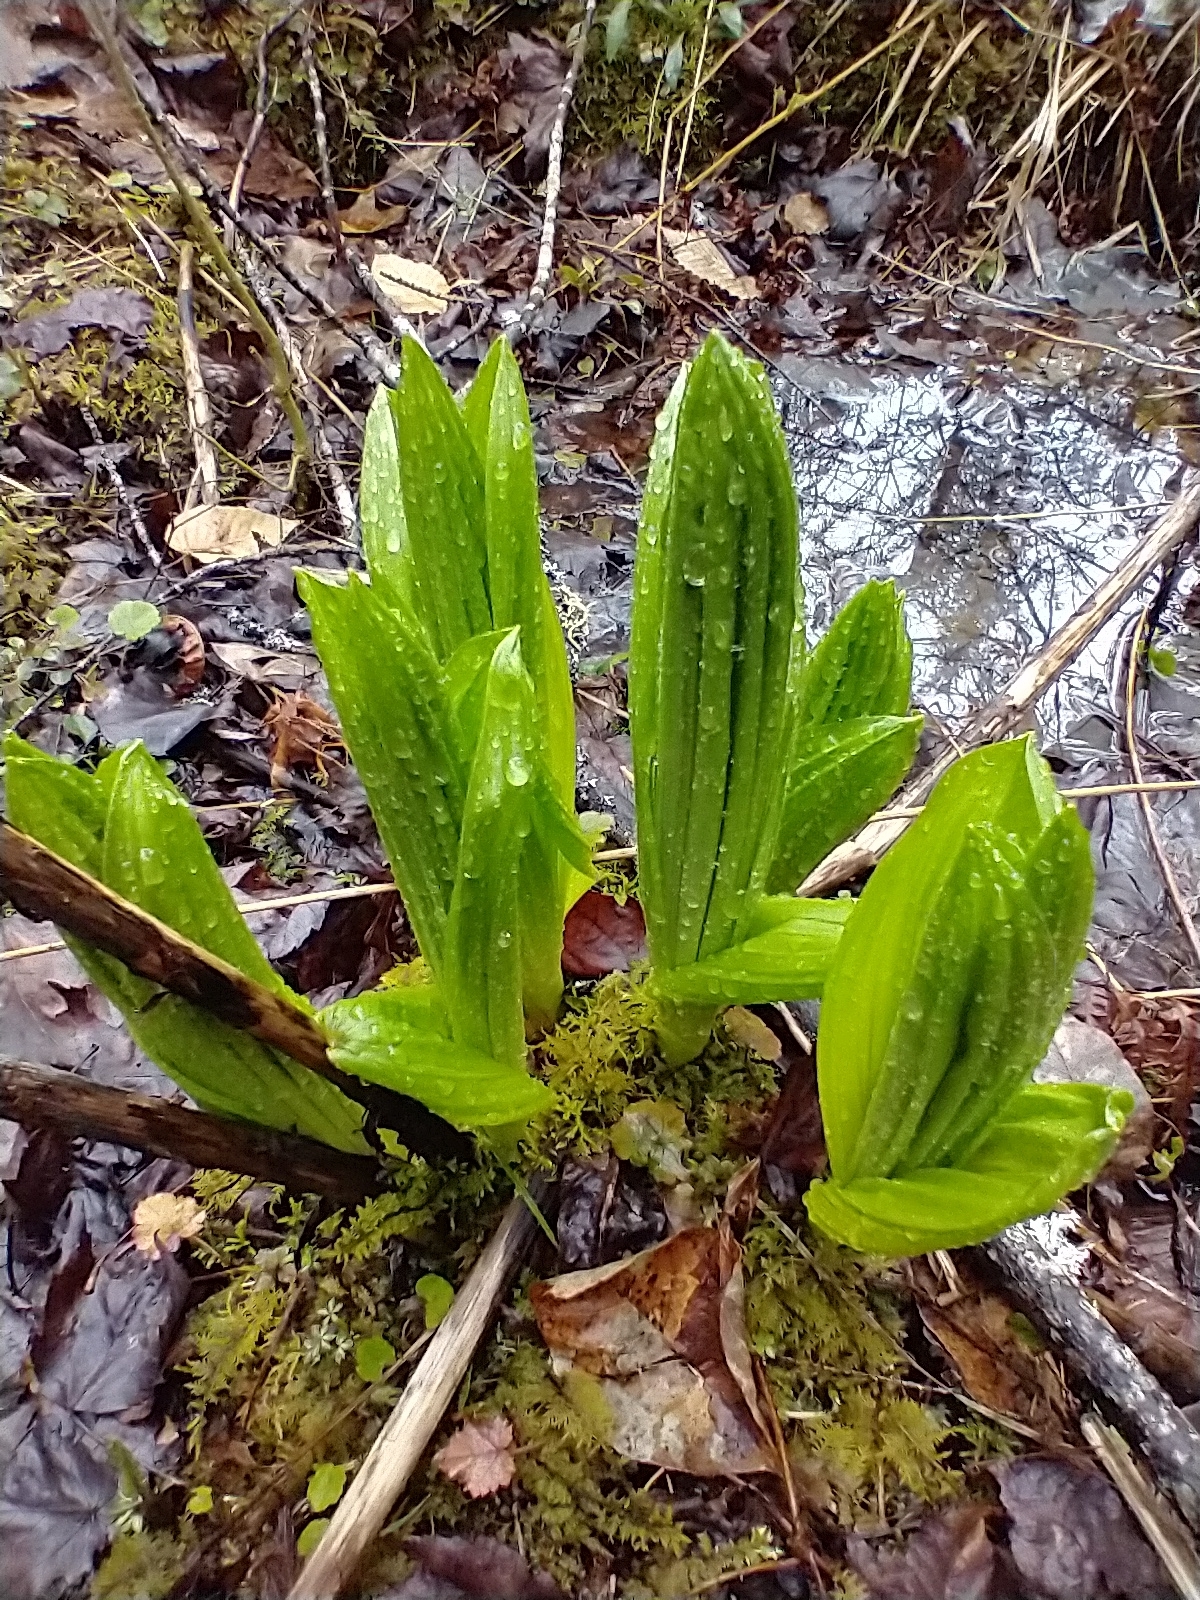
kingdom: Plantae
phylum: Tracheophyta
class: Liliopsida
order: Liliales
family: Melanthiaceae
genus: Veratrum
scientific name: Veratrum viride
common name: American false hellebore
